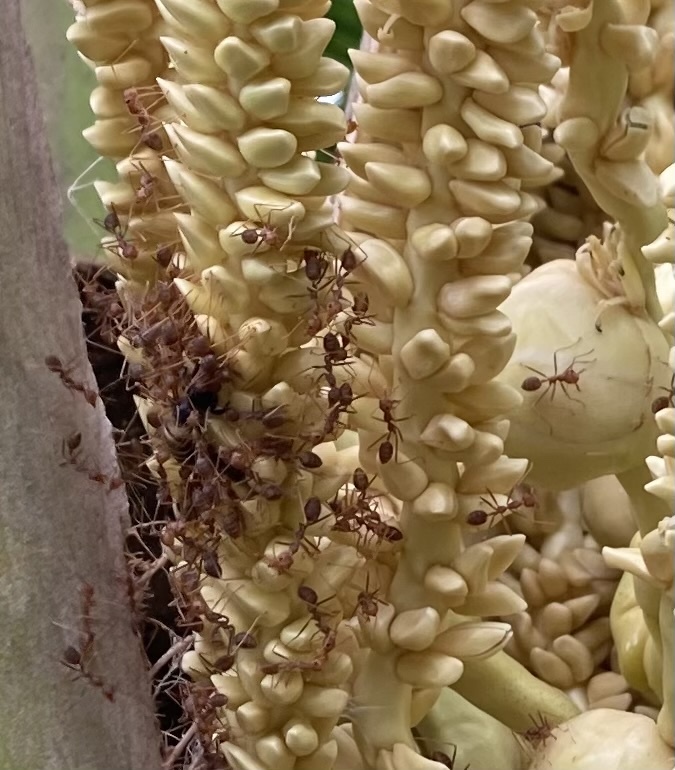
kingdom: Animalia
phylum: Arthropoda
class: Insecta
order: Hymenoptera
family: Formicidae
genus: Oecophylla
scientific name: Oecophylla smaragdina
